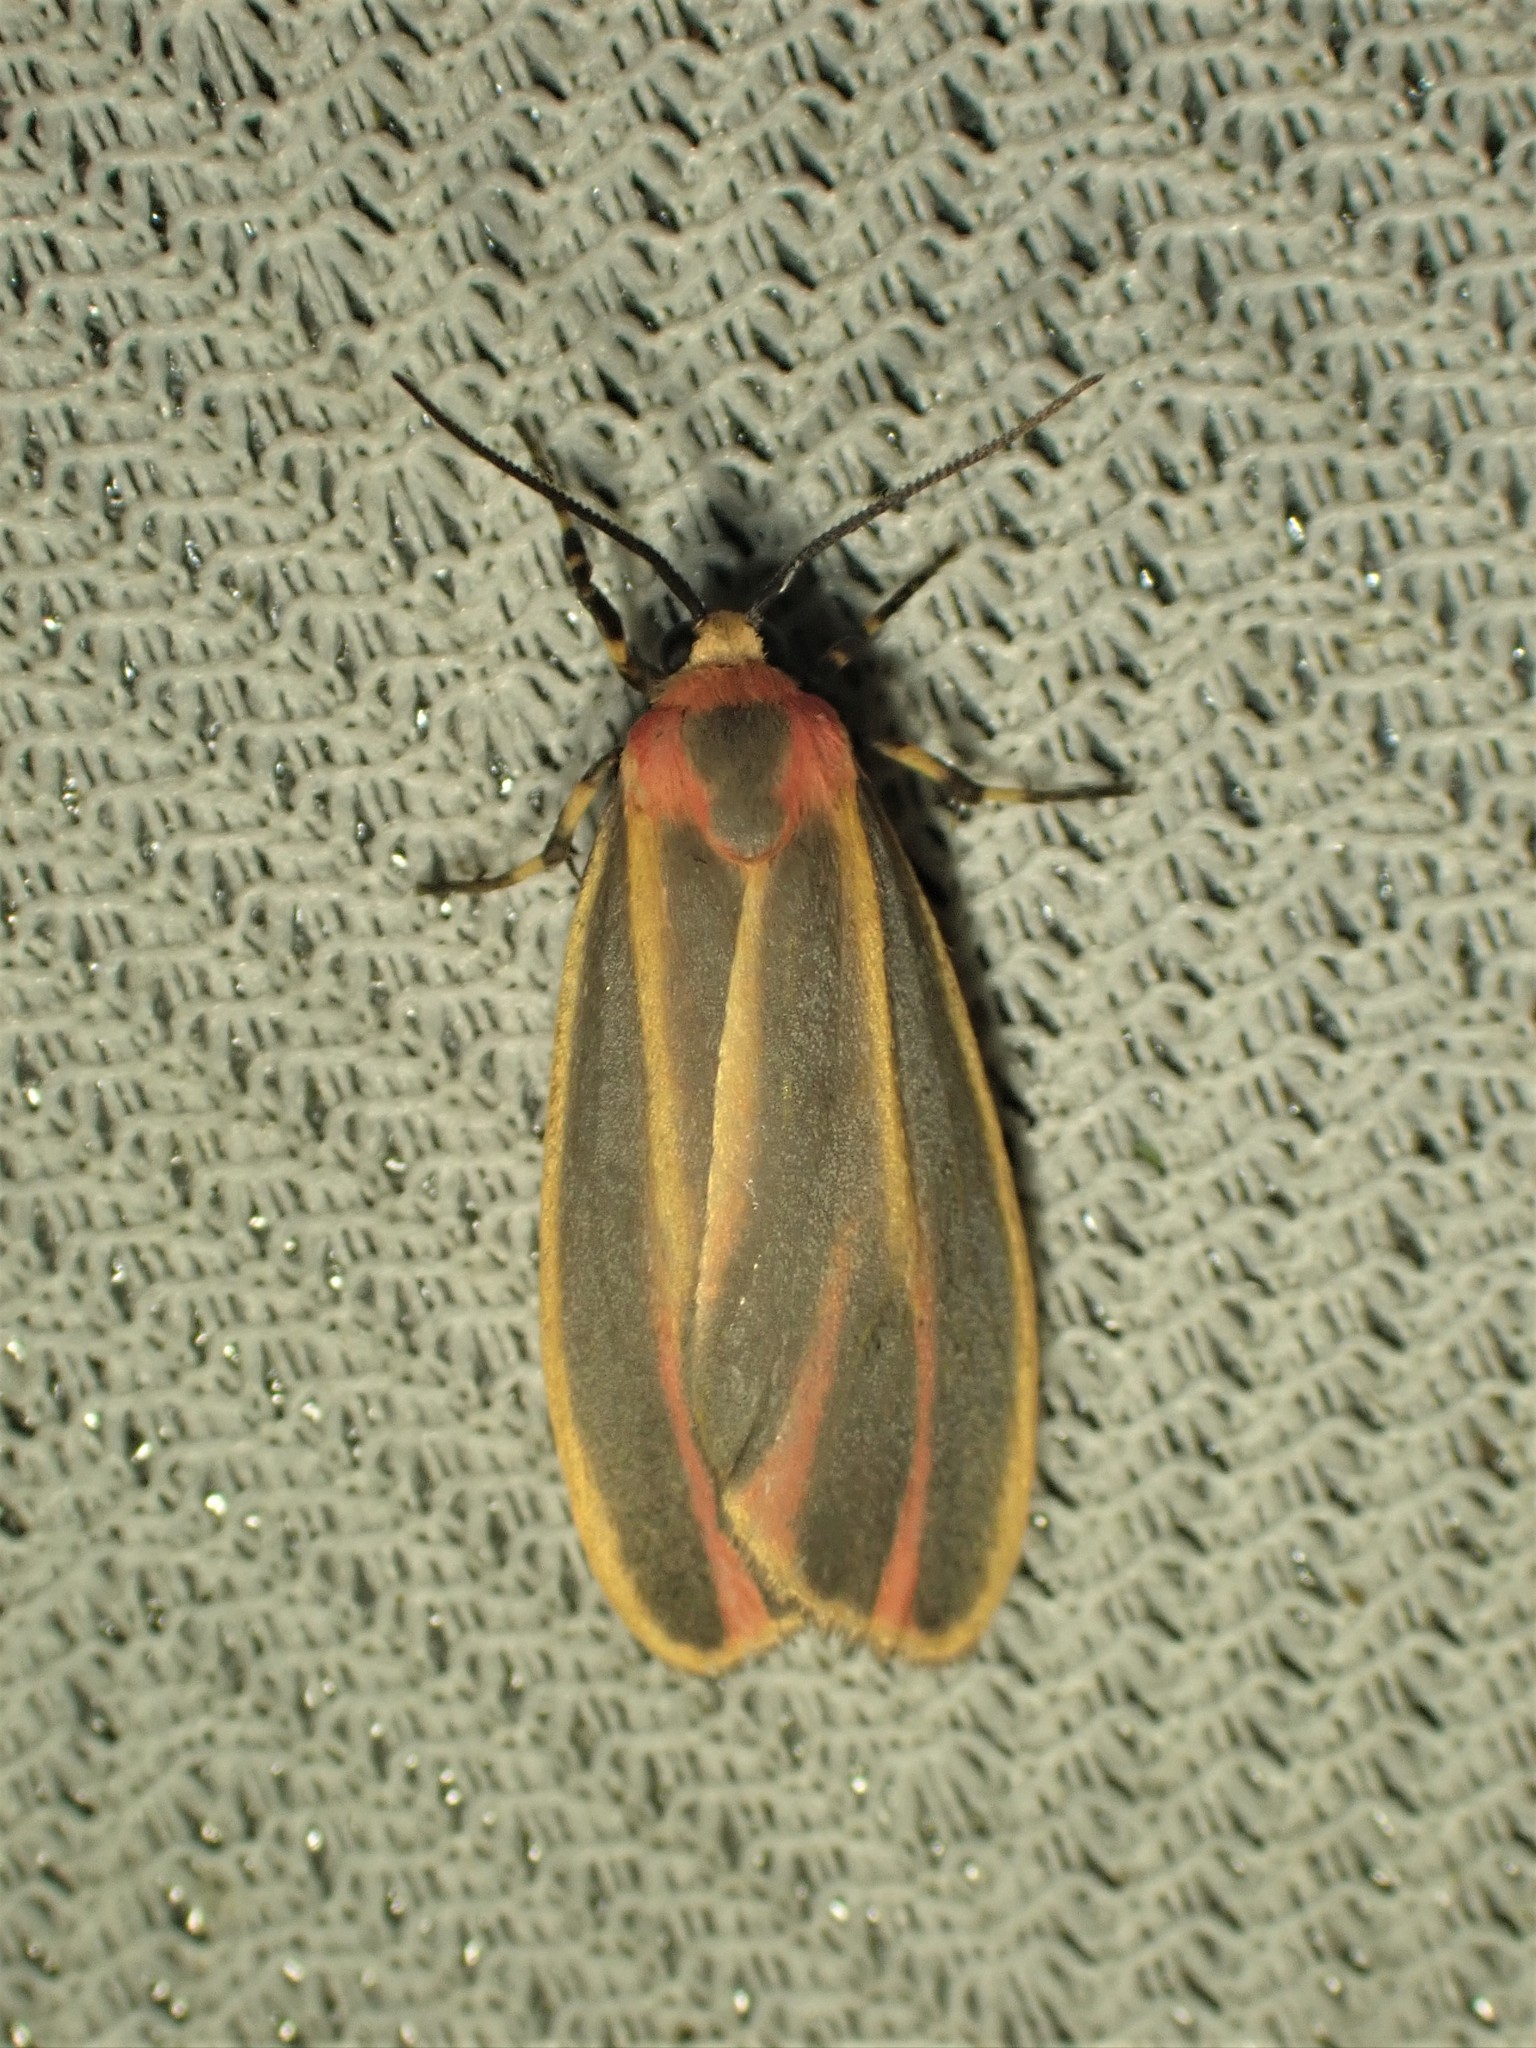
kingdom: Animalia
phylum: Arthropoda
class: Insecta
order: Lepidoptera
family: Erebidae
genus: Hypoprepia
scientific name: Hypoprepia fucosa
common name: Painted lichen moth
